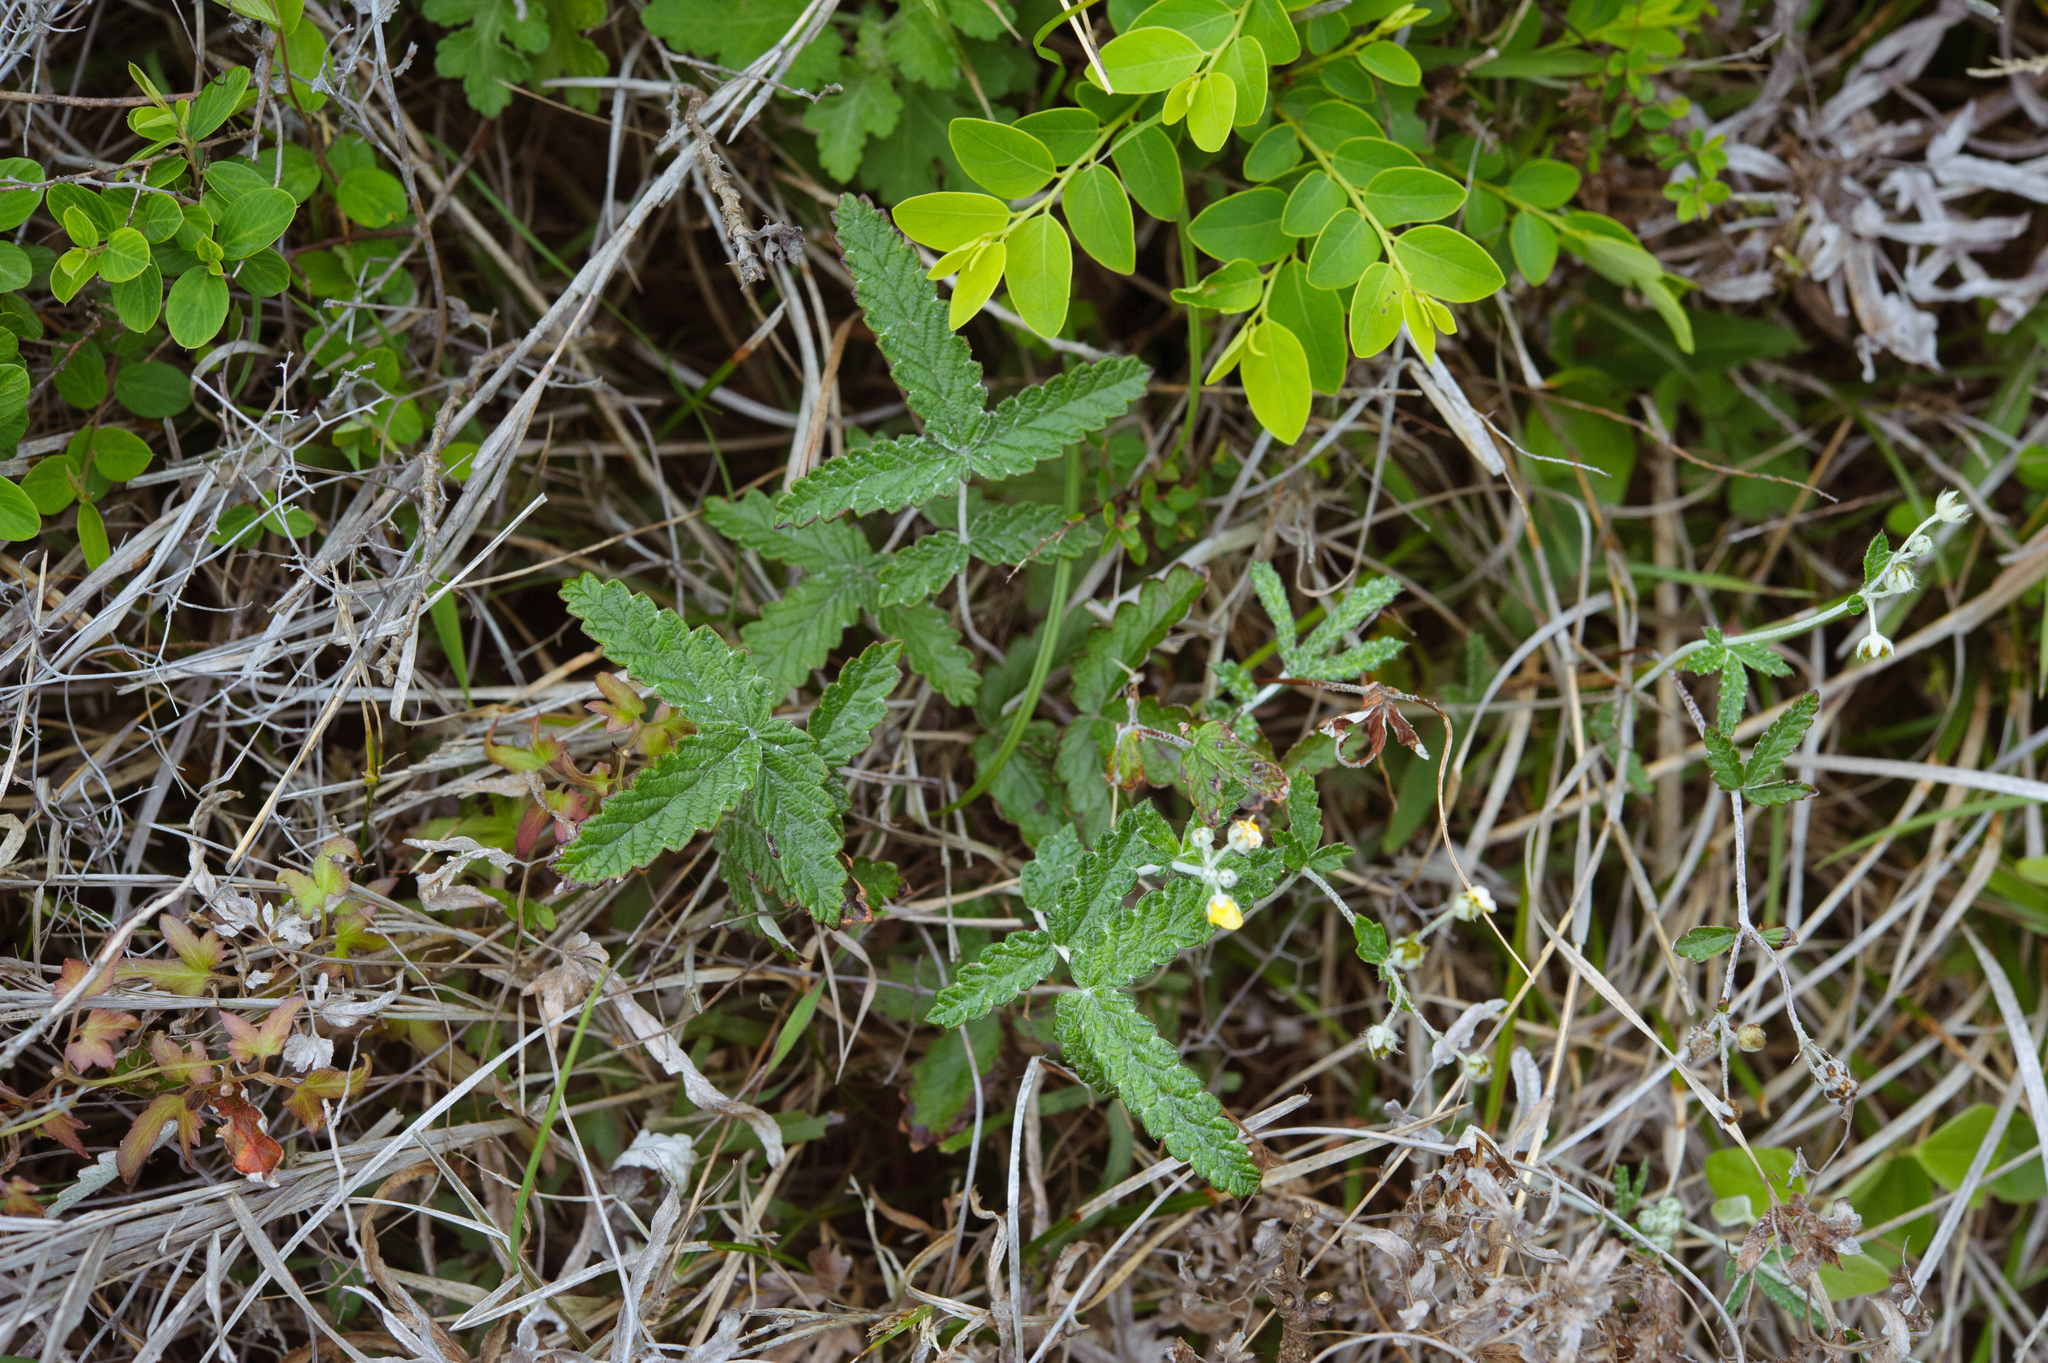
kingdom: Plantae
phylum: Tracheophyta
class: Magnoliopsida
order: Rosales
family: Rosaceae
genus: Potentilla
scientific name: Potentilla discolor
